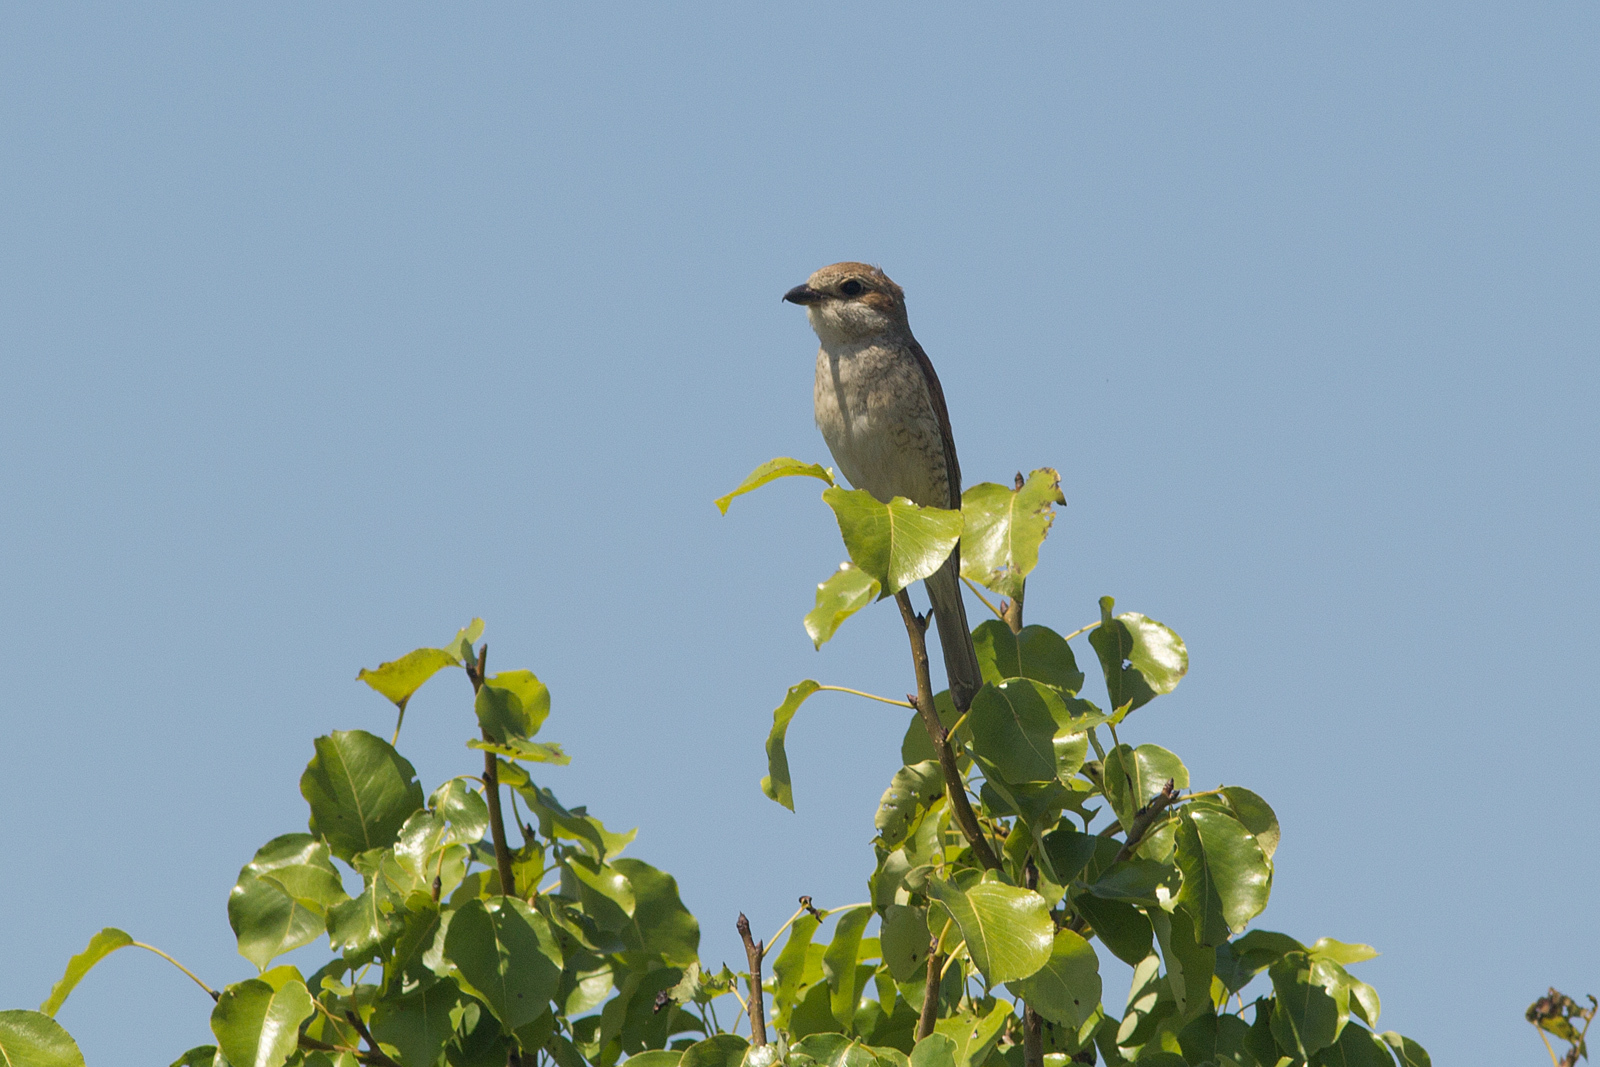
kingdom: Animalia
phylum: Chordata
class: Aves
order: Passeriformes
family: Laniidae
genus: Lanius
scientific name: Lanius collurio
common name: Red-backed shrike
